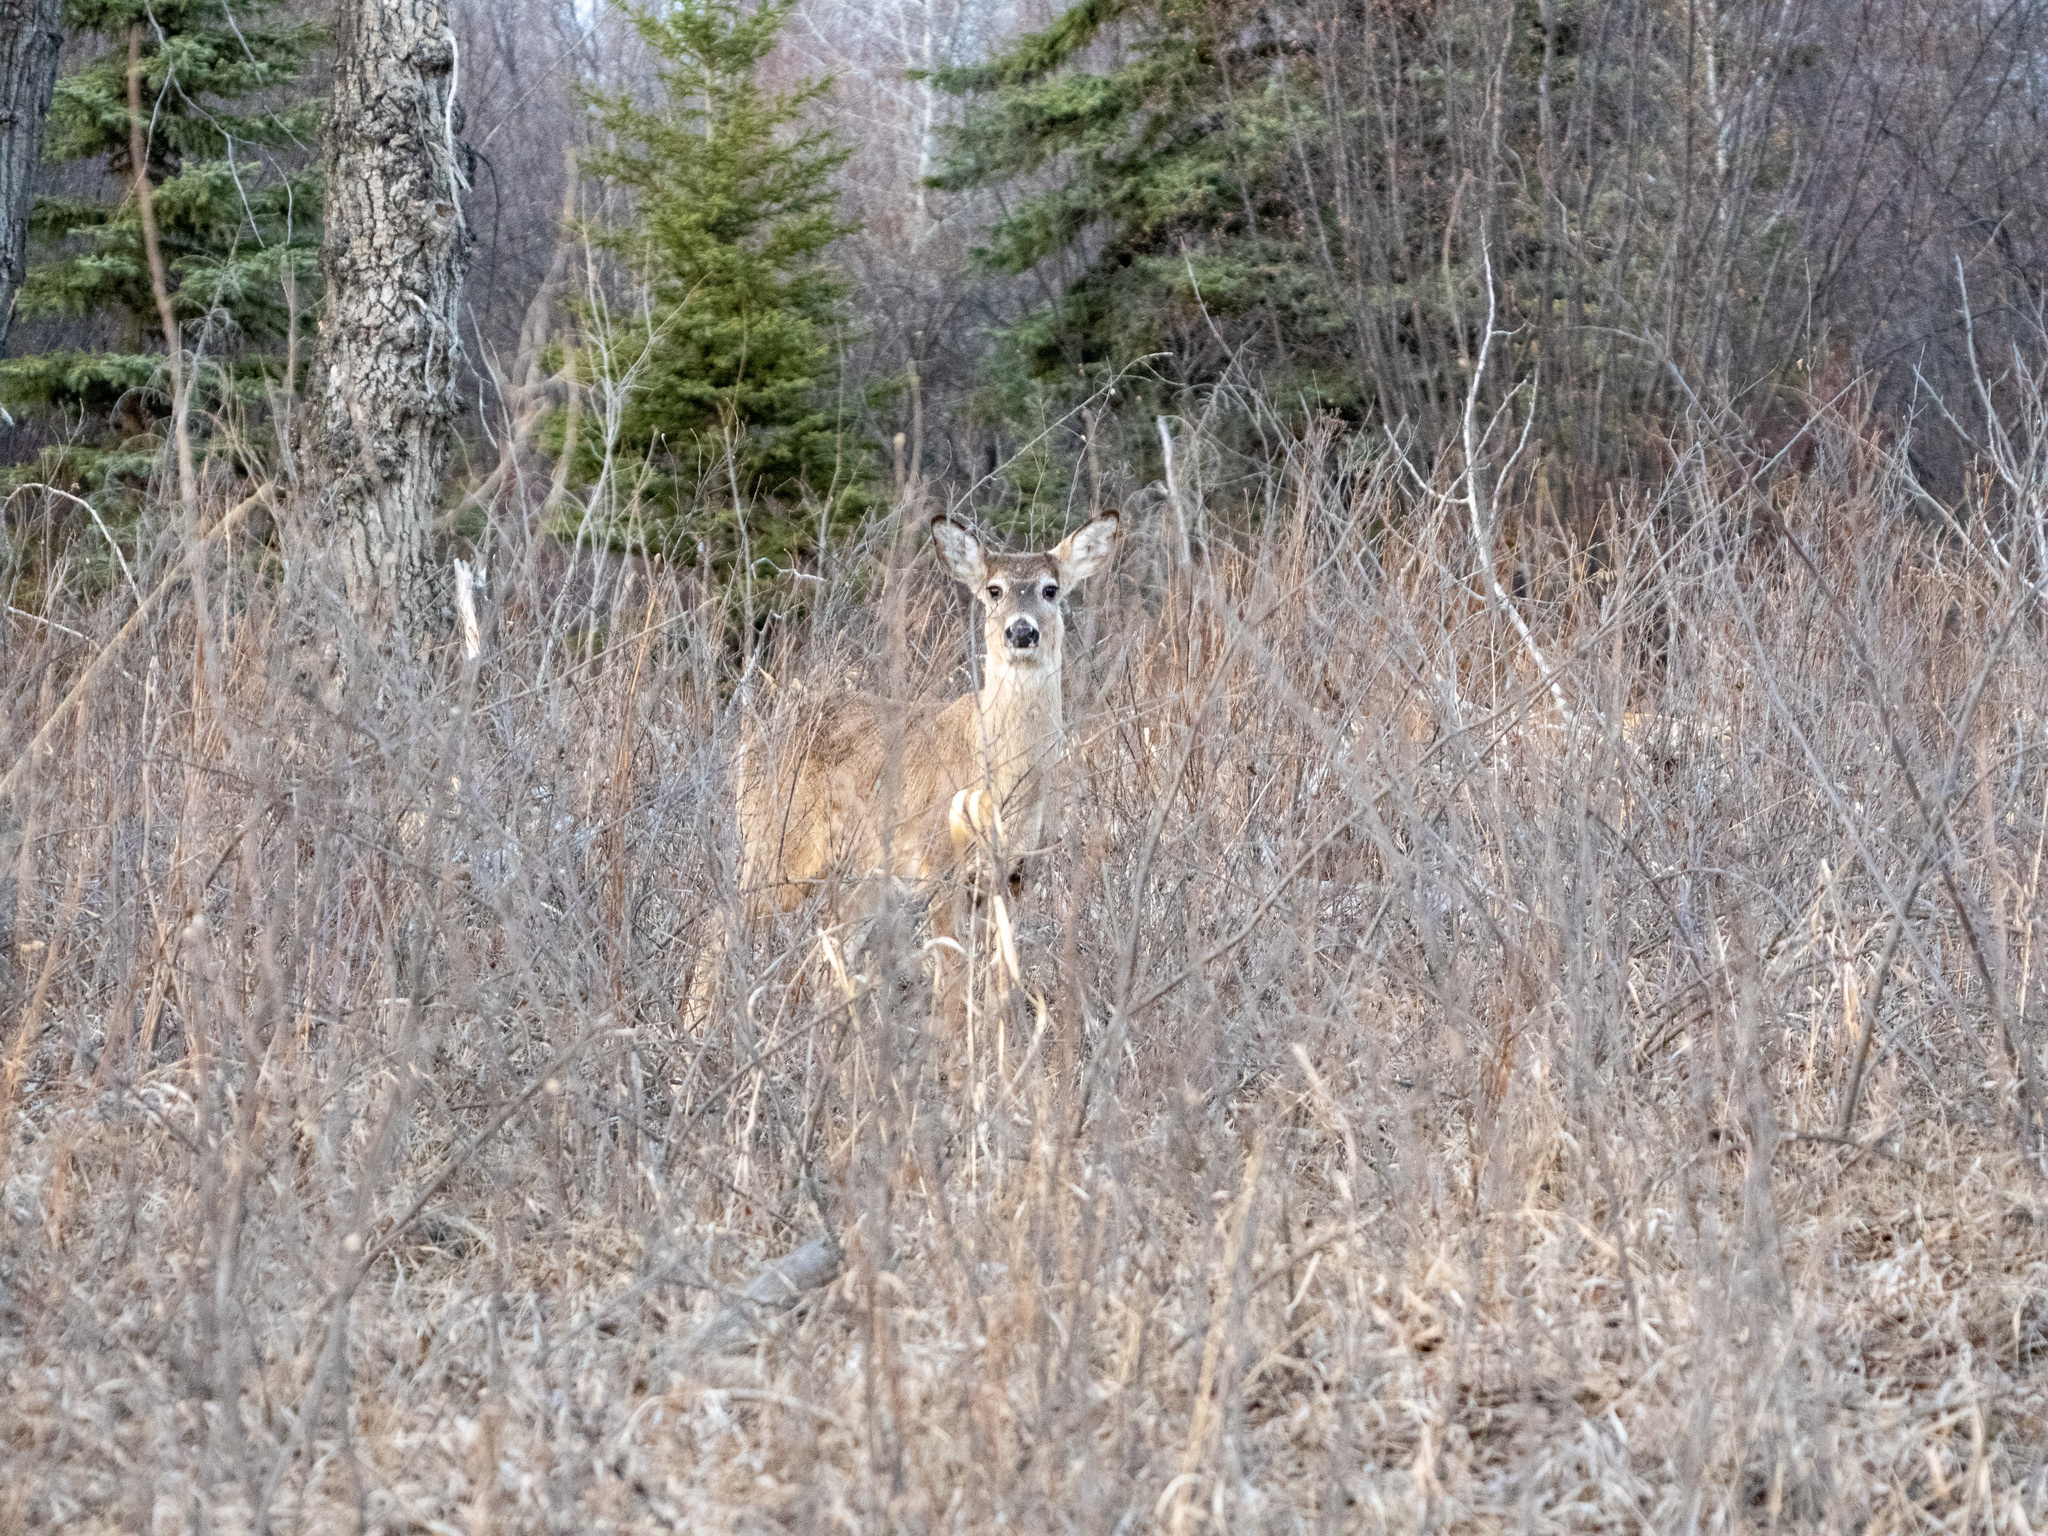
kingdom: Animalia
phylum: Chordata
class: Mammalia
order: Artiodactyla
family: Cervidae
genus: Odocoileus
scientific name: Odocoileus virginianus
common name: White-tailed deer
